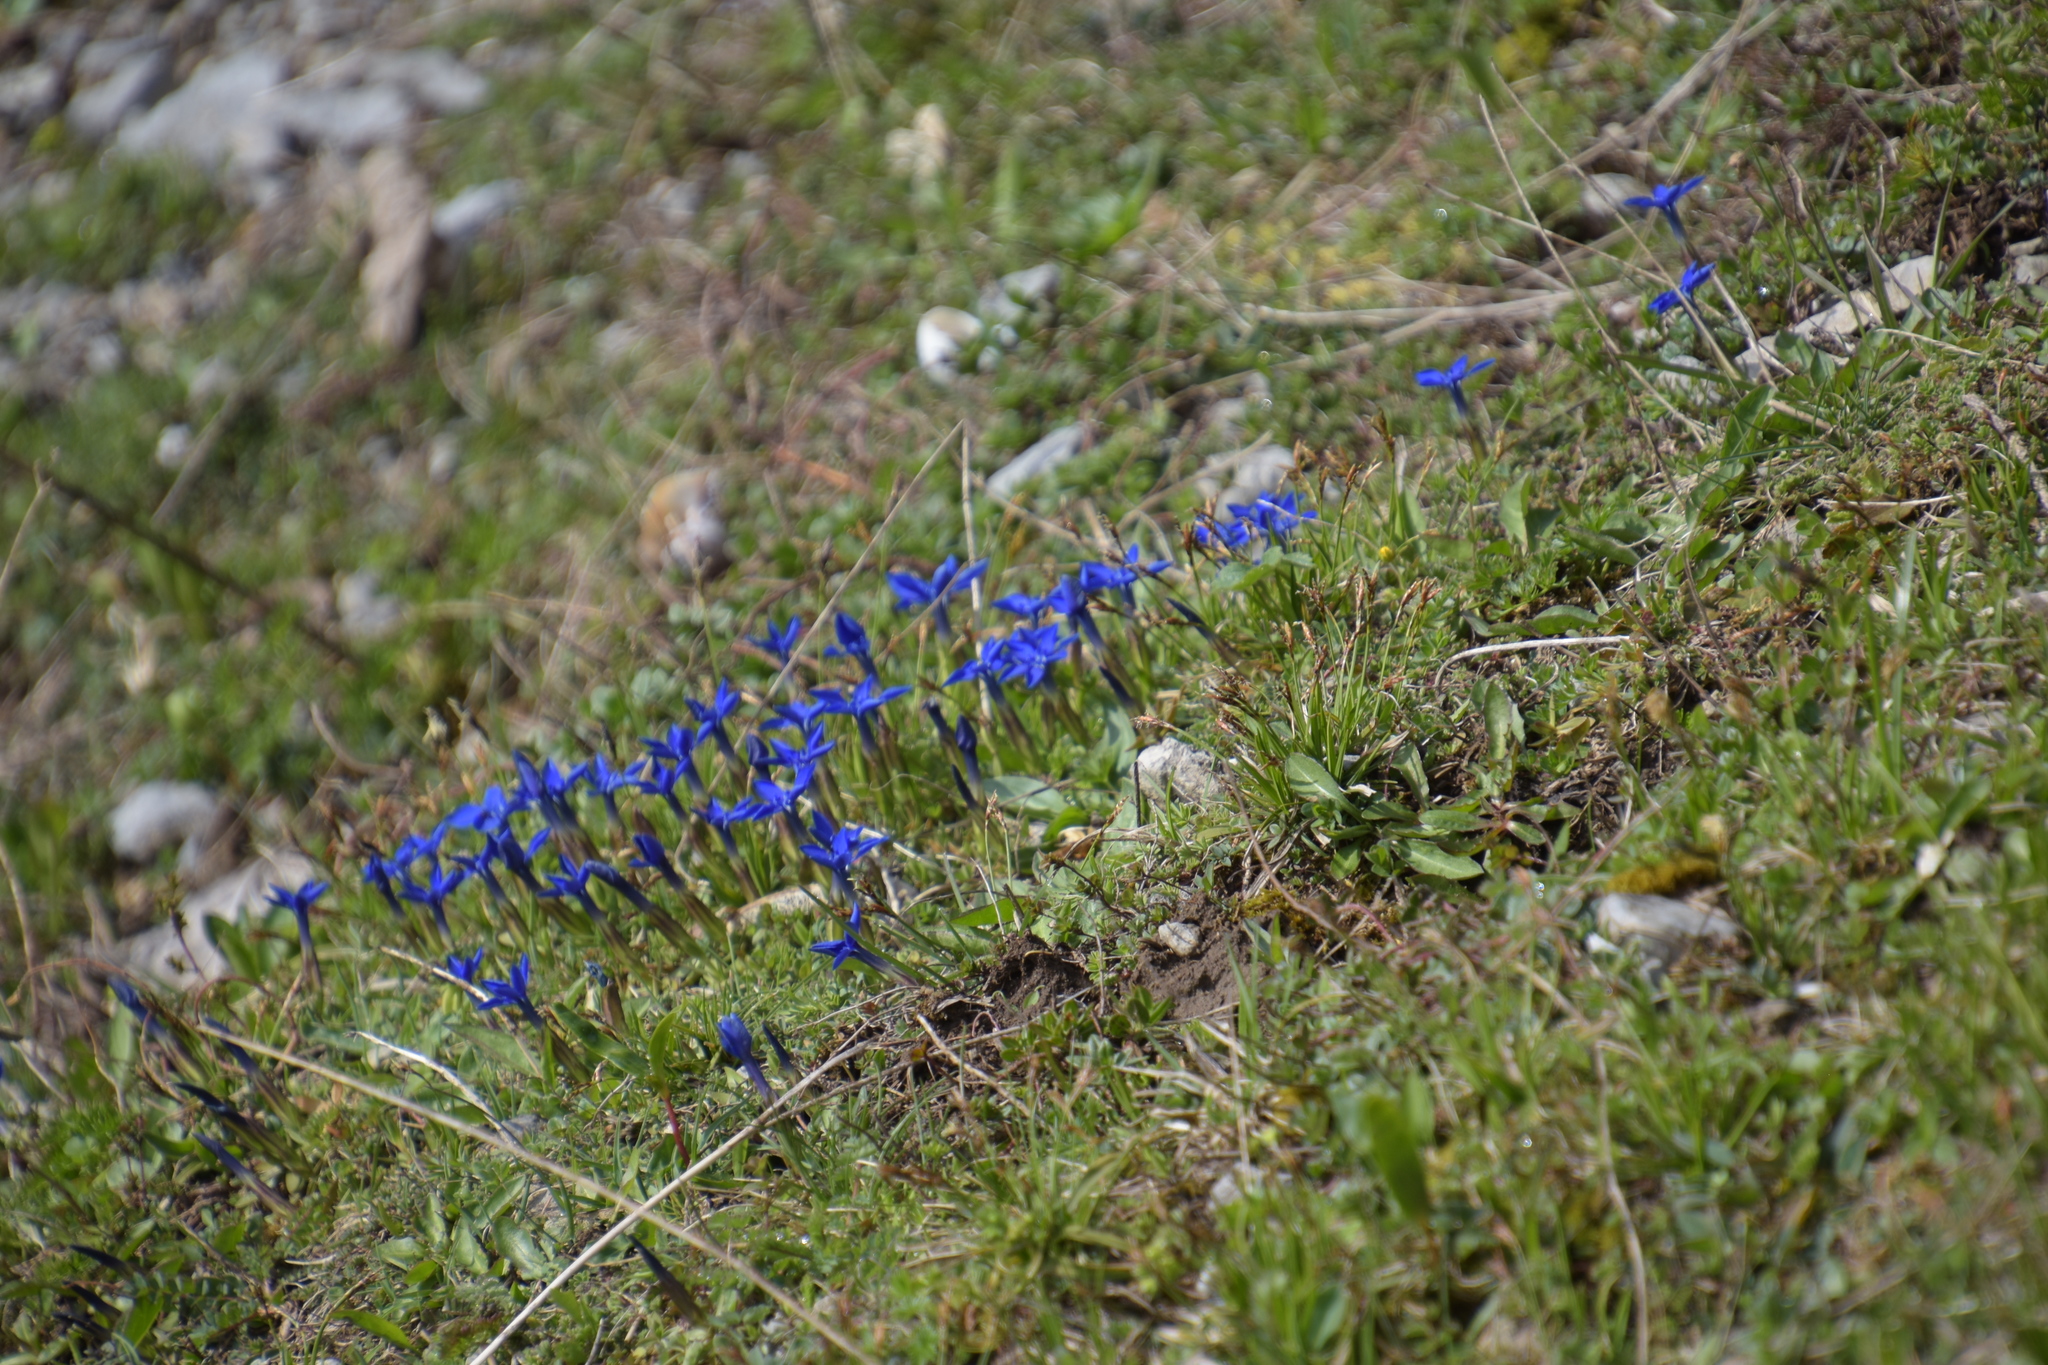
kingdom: Plantae
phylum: Tracheophyta
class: Magnoliopsida
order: Gentianales
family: Gentianaceae
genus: Gentiana
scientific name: Gentiana verna
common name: Spring gentian
